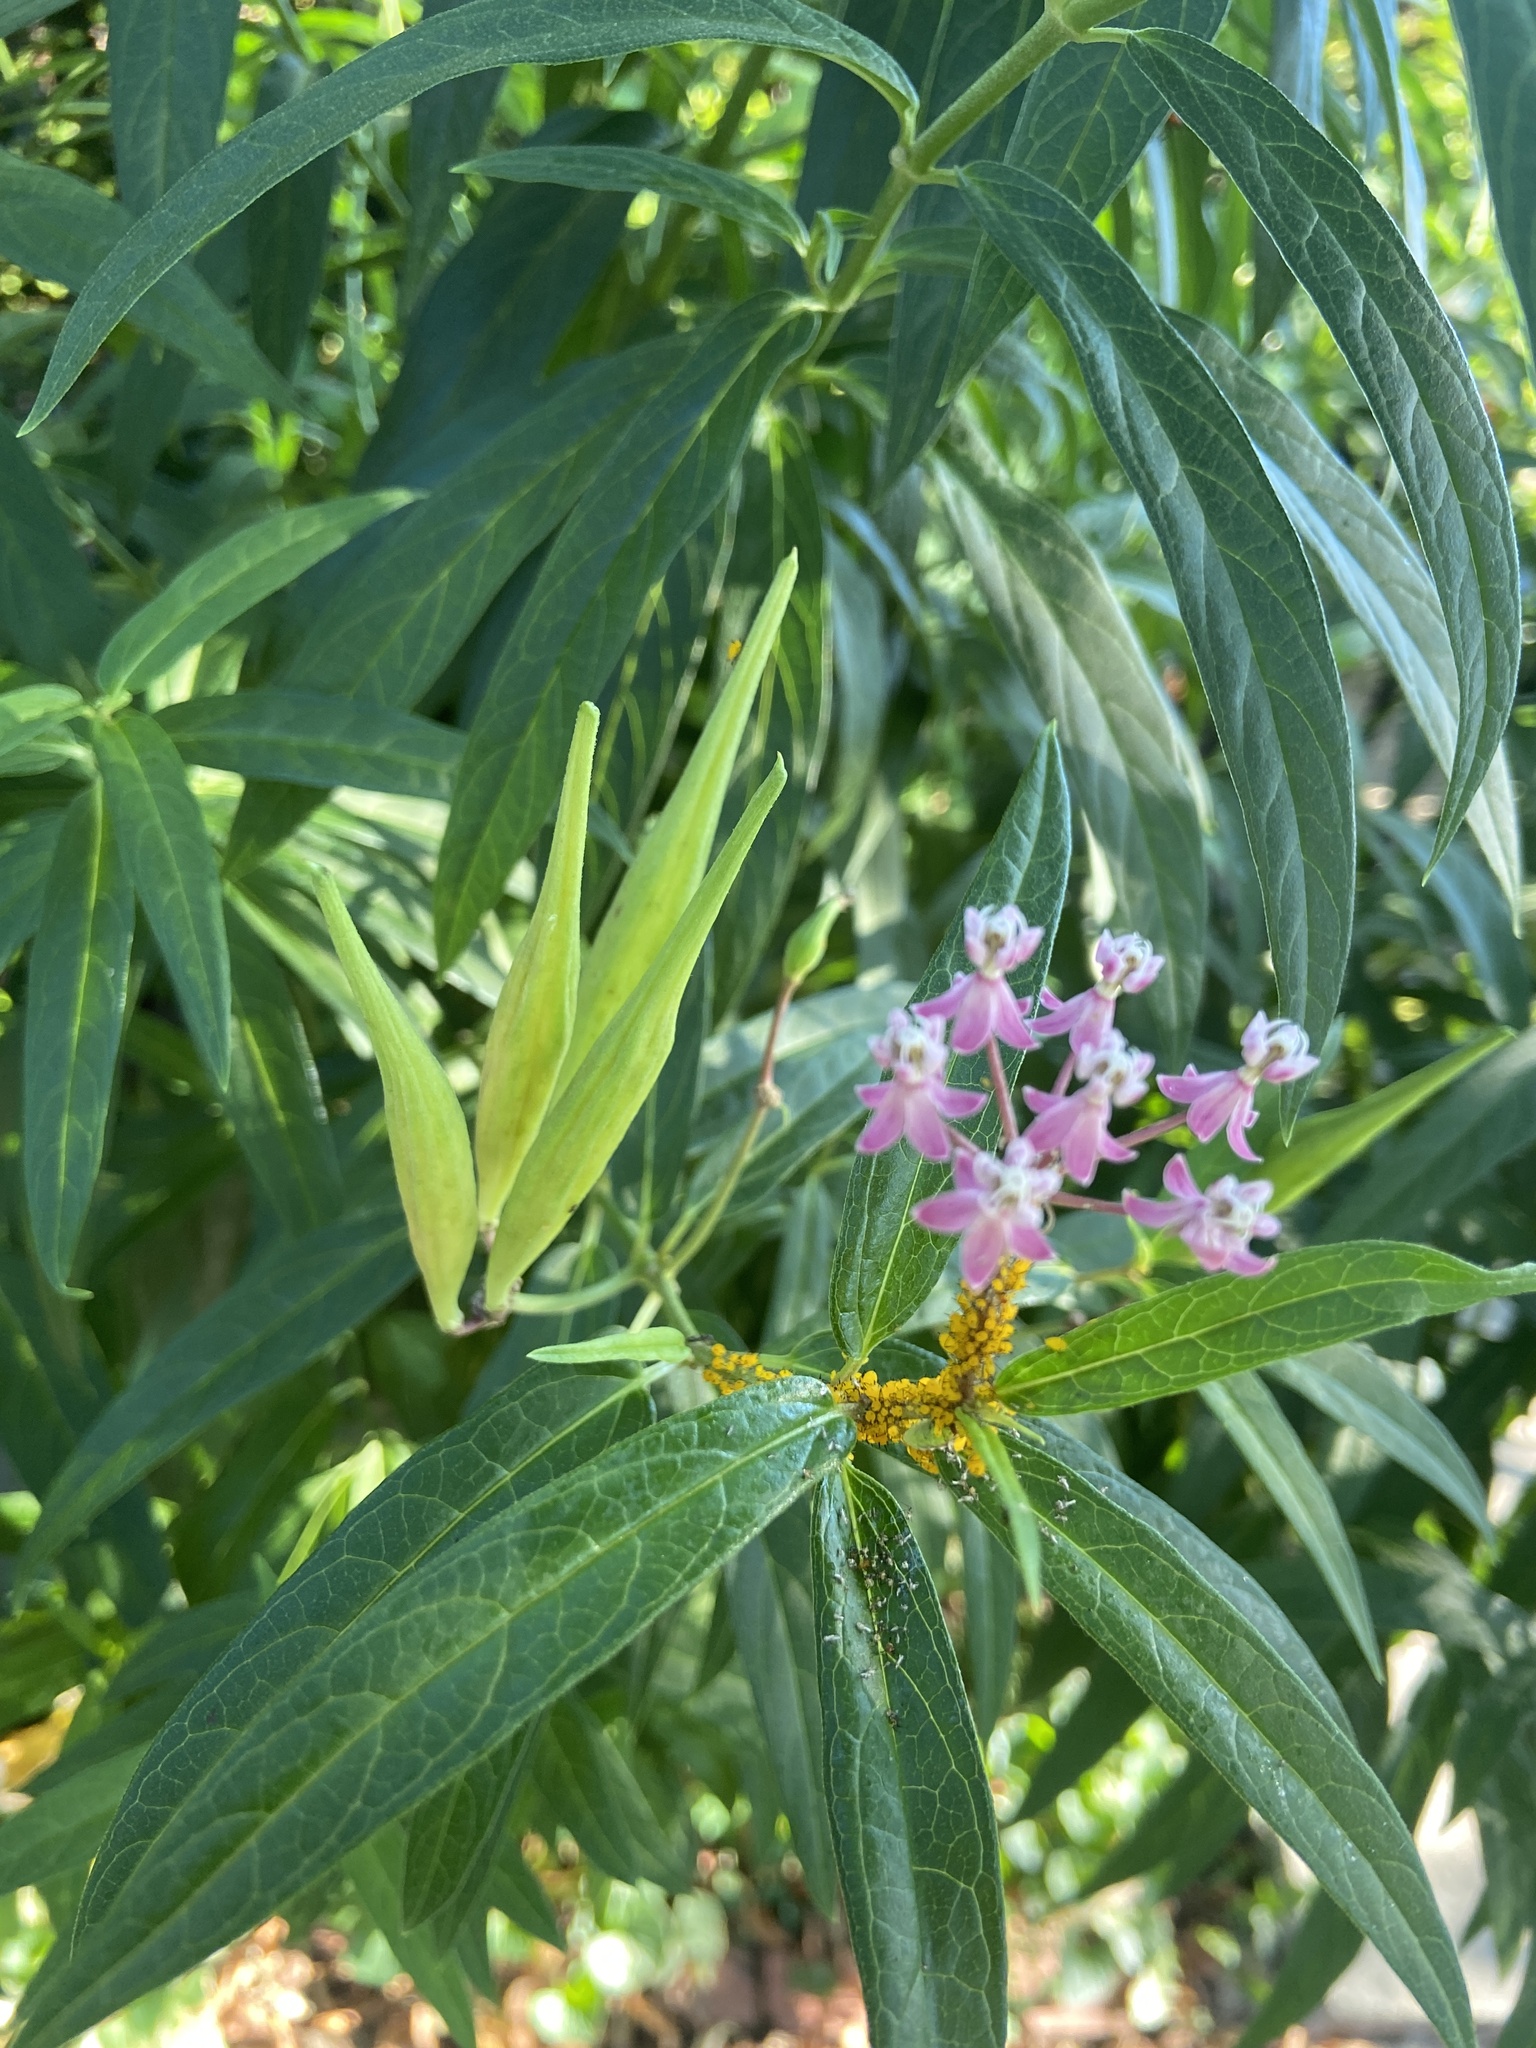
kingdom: Plantae
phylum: Tracheophyta
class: Magnoliopsida
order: Gentianales
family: Apocynaceae
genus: Asclepias
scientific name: Asclepias incarnata
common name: Swamp milkweed
